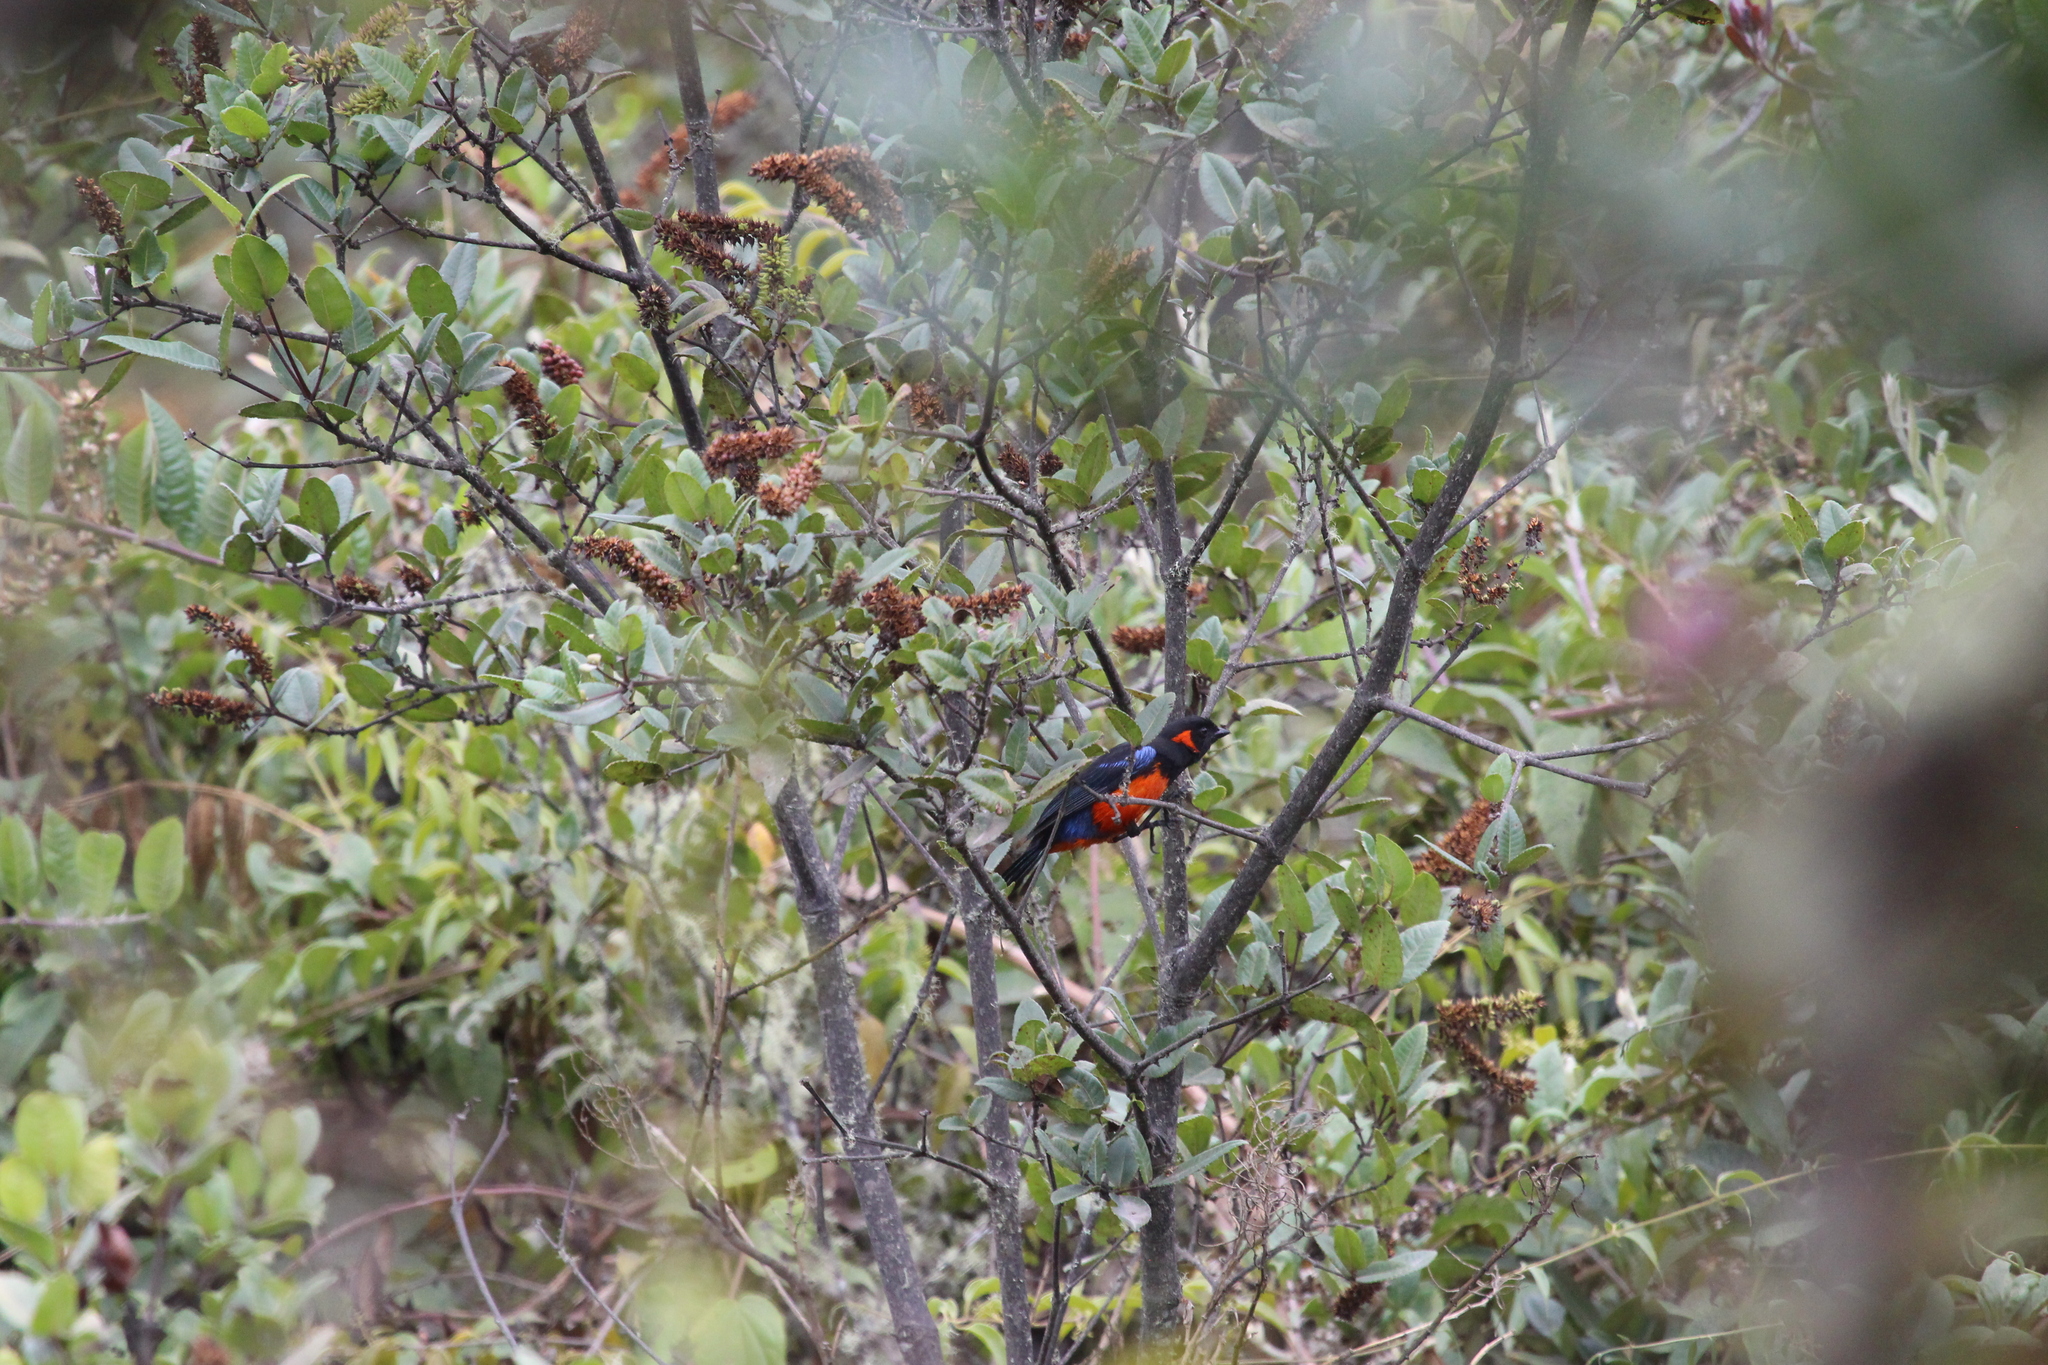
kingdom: Animalia
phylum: Chordata
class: Aves
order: Passeriformes
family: Thraupidae
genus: Anisognathus
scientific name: Anisognathus igniventris
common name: Scarlet-bellied mountain tanager
